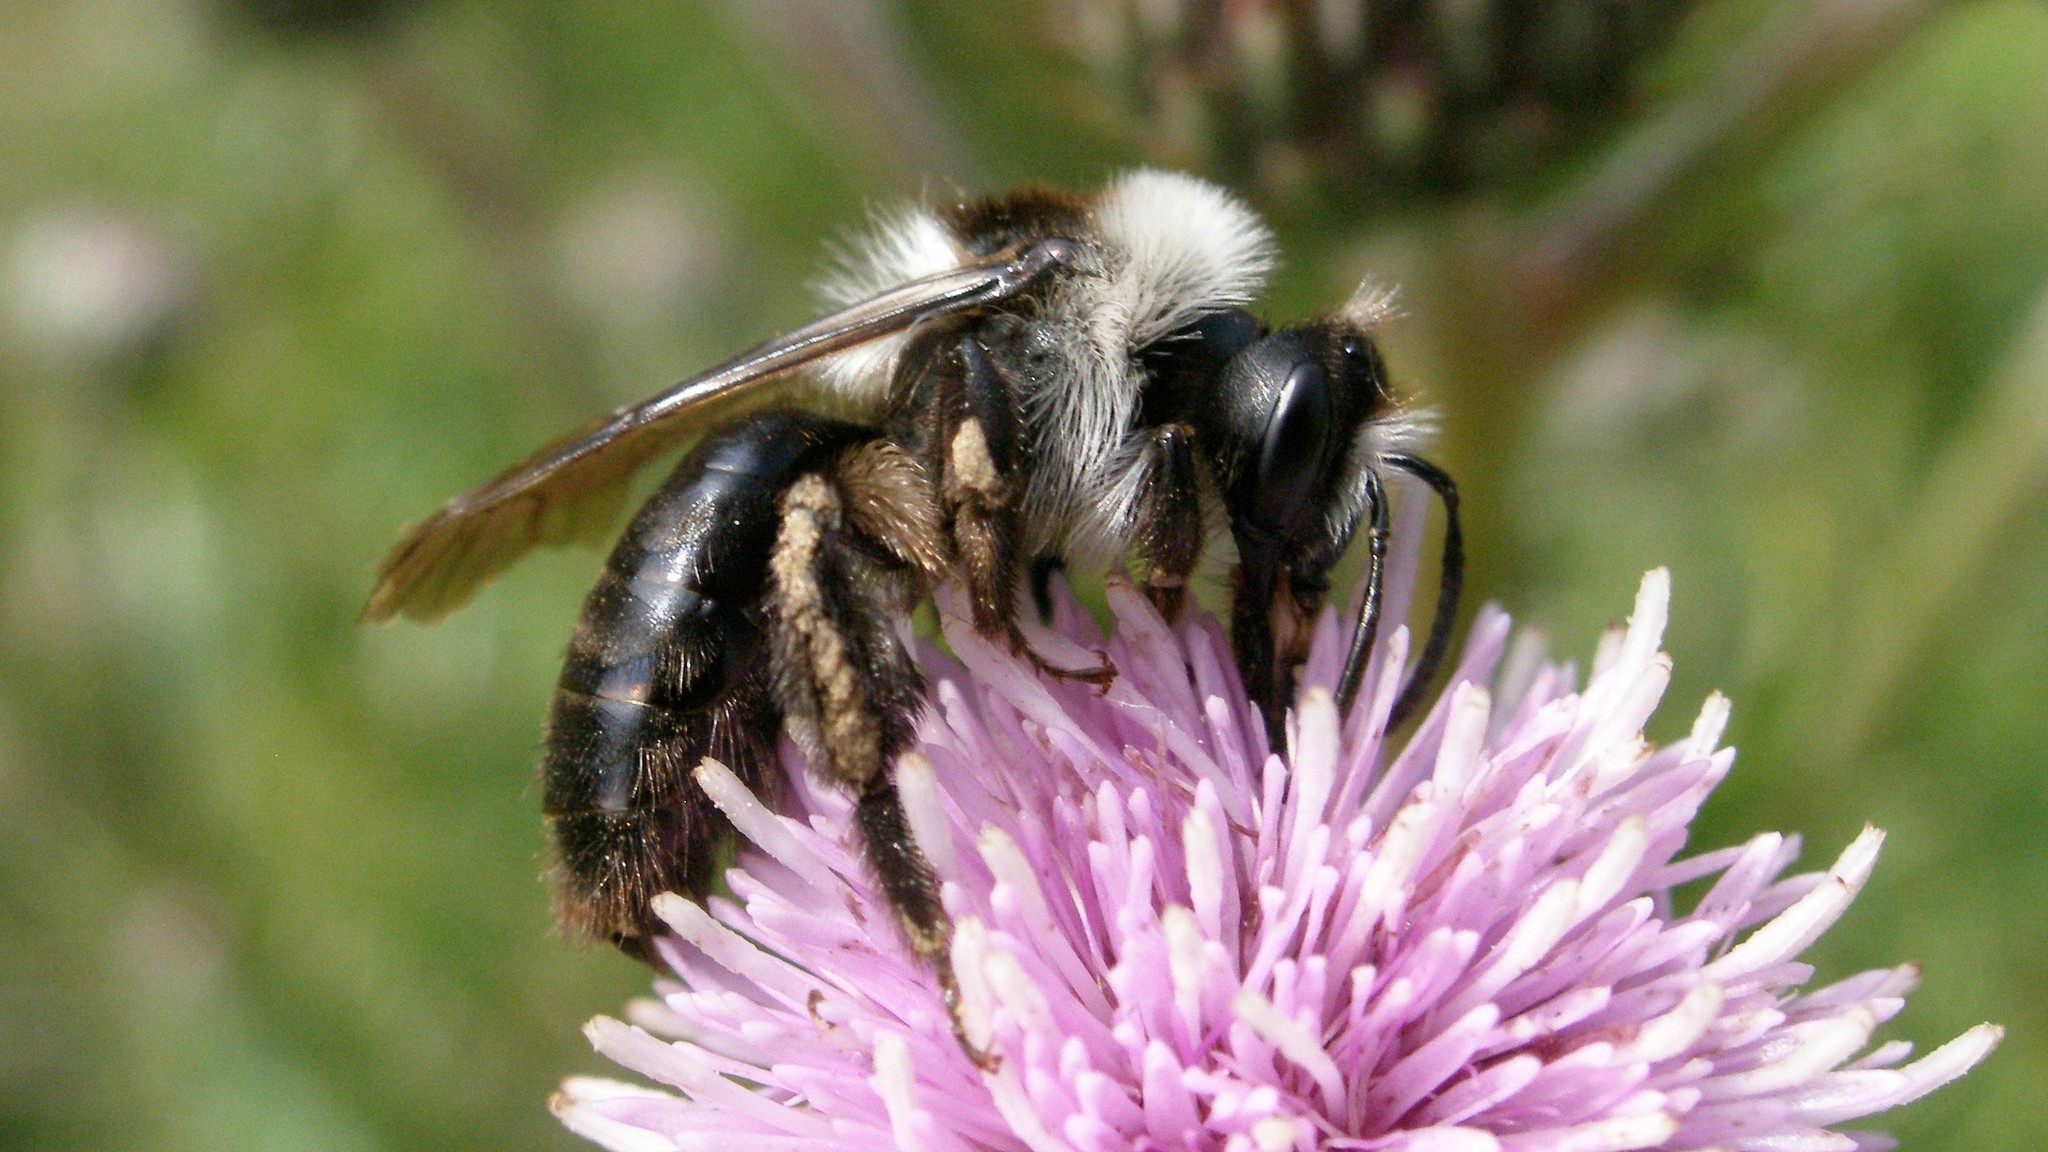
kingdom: Animalia
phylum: Arthropoda
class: Insecta
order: Hymenoptera
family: Andrenidae
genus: Andrena
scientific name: Andrena cineraria
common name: Ashy mining bee
